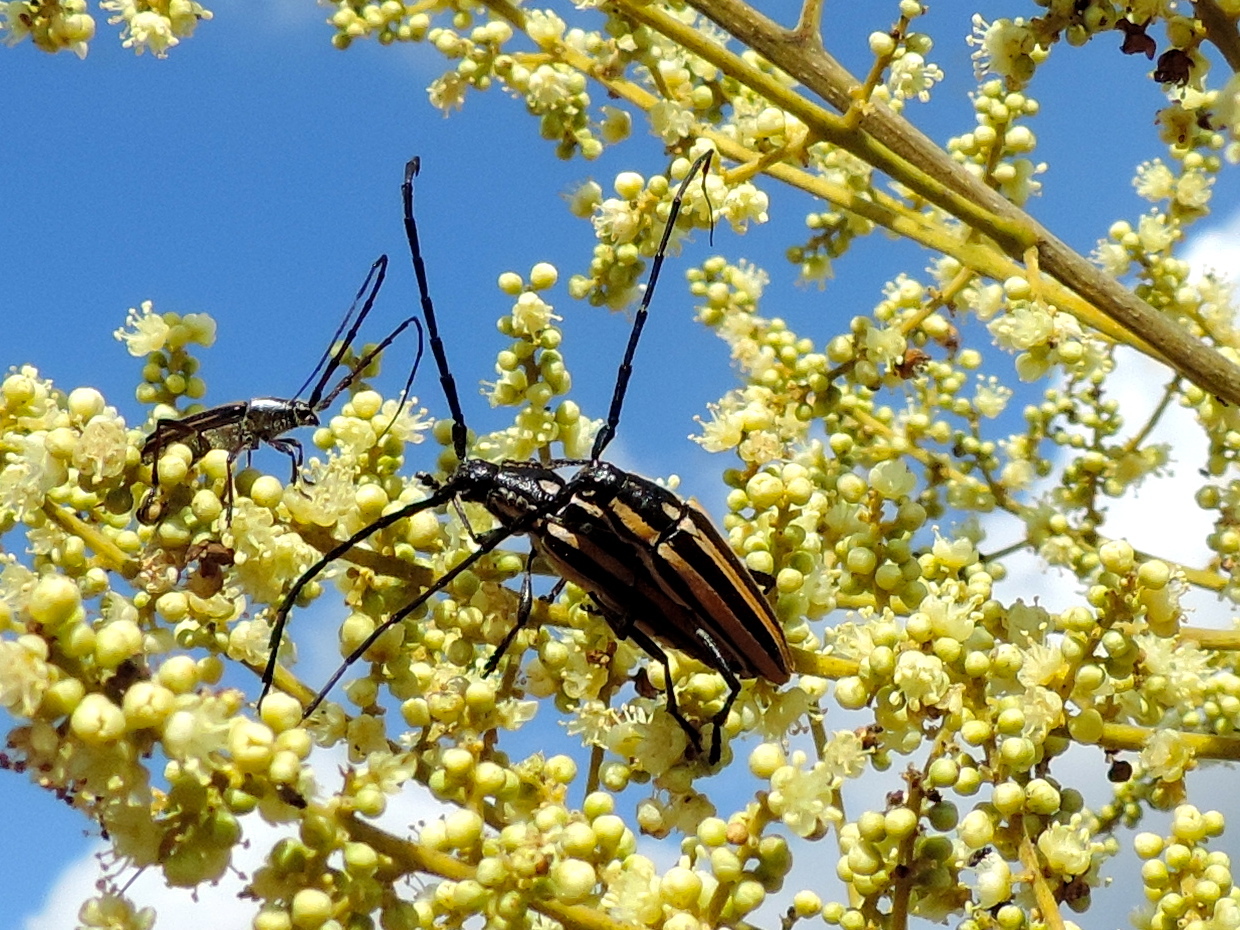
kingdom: Animalia
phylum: Arthropoda
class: Insecta
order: Coleoptera
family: Cerambycidae
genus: Sphaenothecus
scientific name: Sphaenothecus trilineatus
